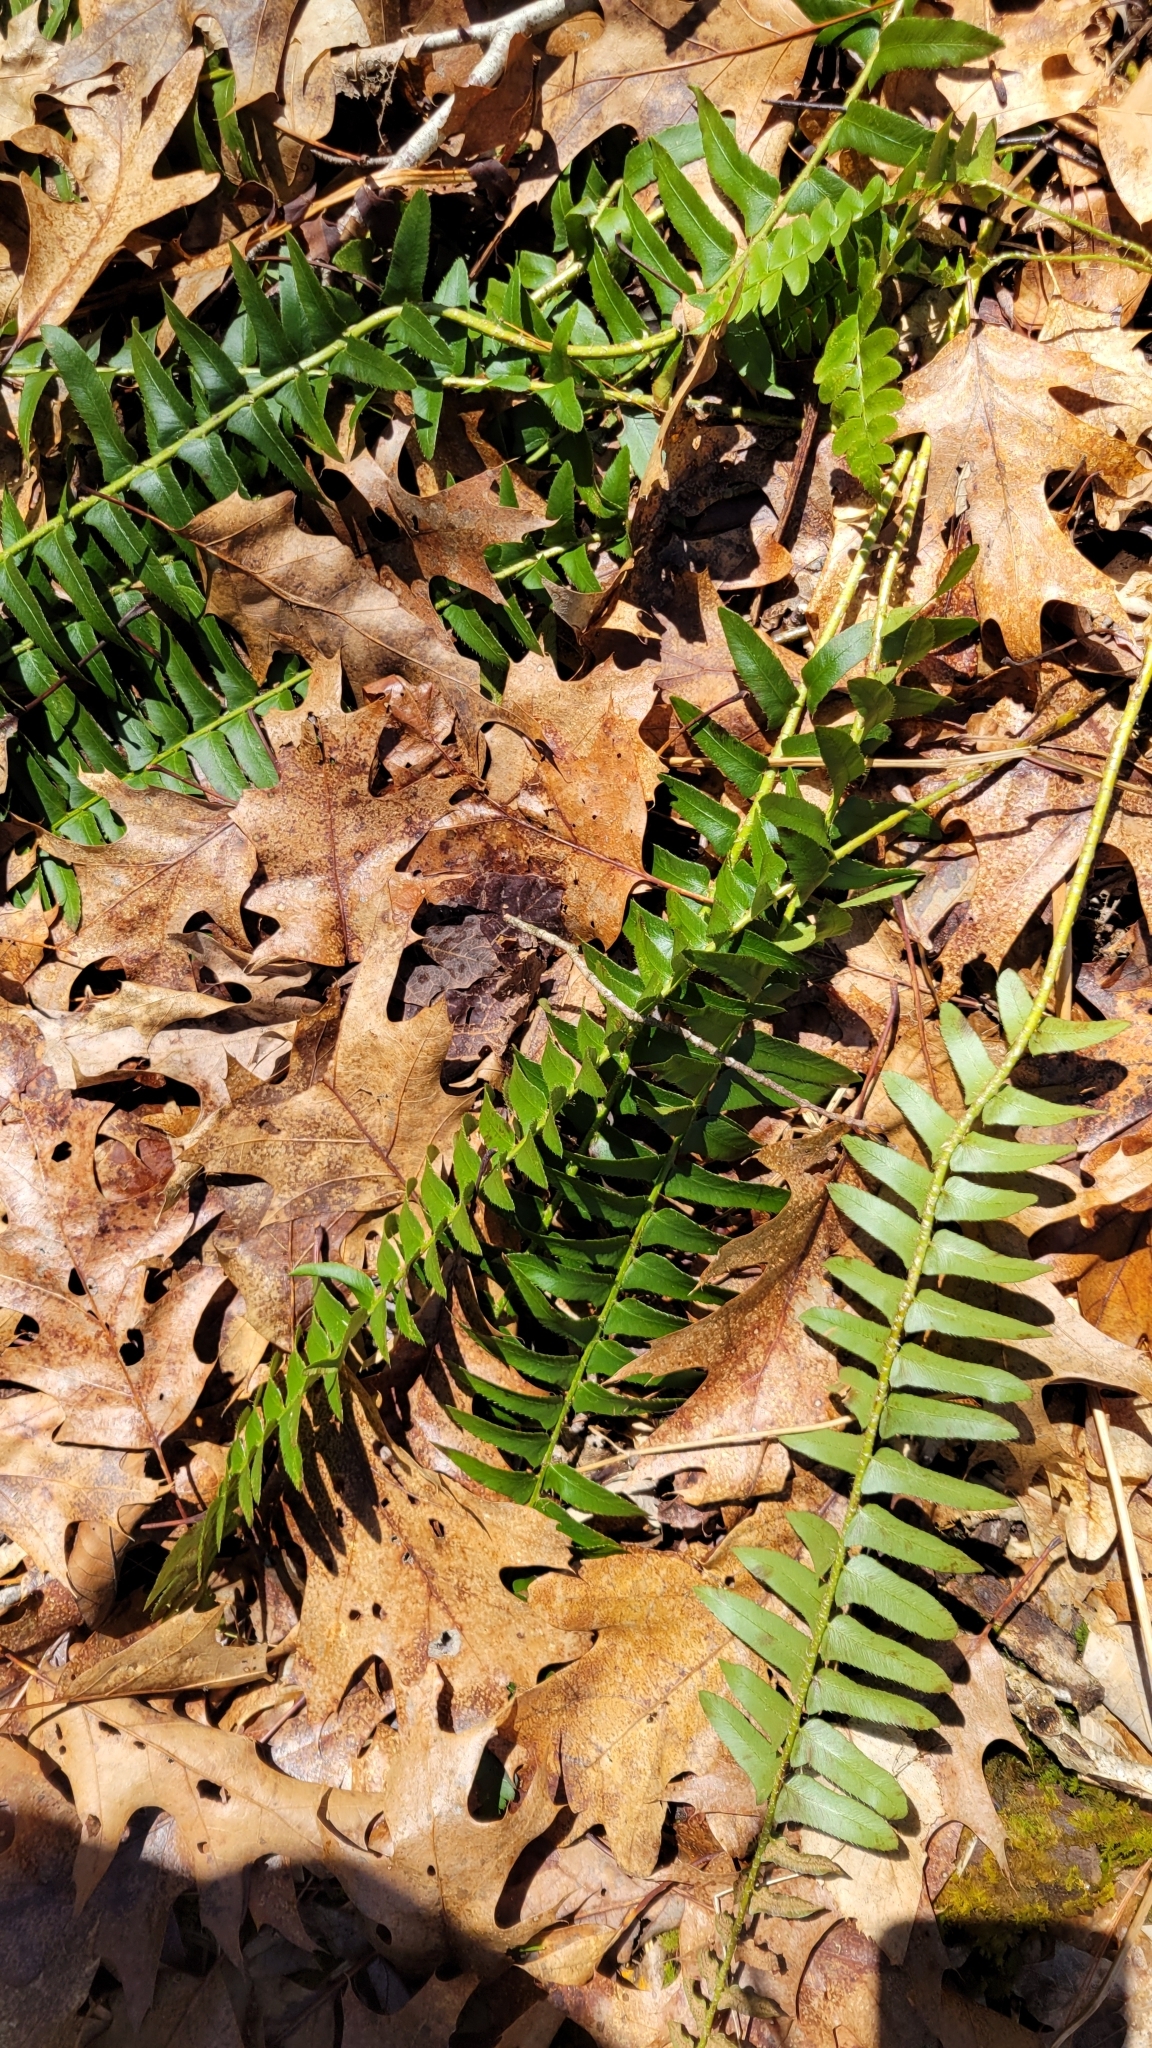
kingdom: Plantae
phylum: Tracheophyta
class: Polypodiopsida
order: Polypodiales
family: Dryopteridaceae
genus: Polystichum
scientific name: Polystichum acrostichoides
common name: Christmas fern
